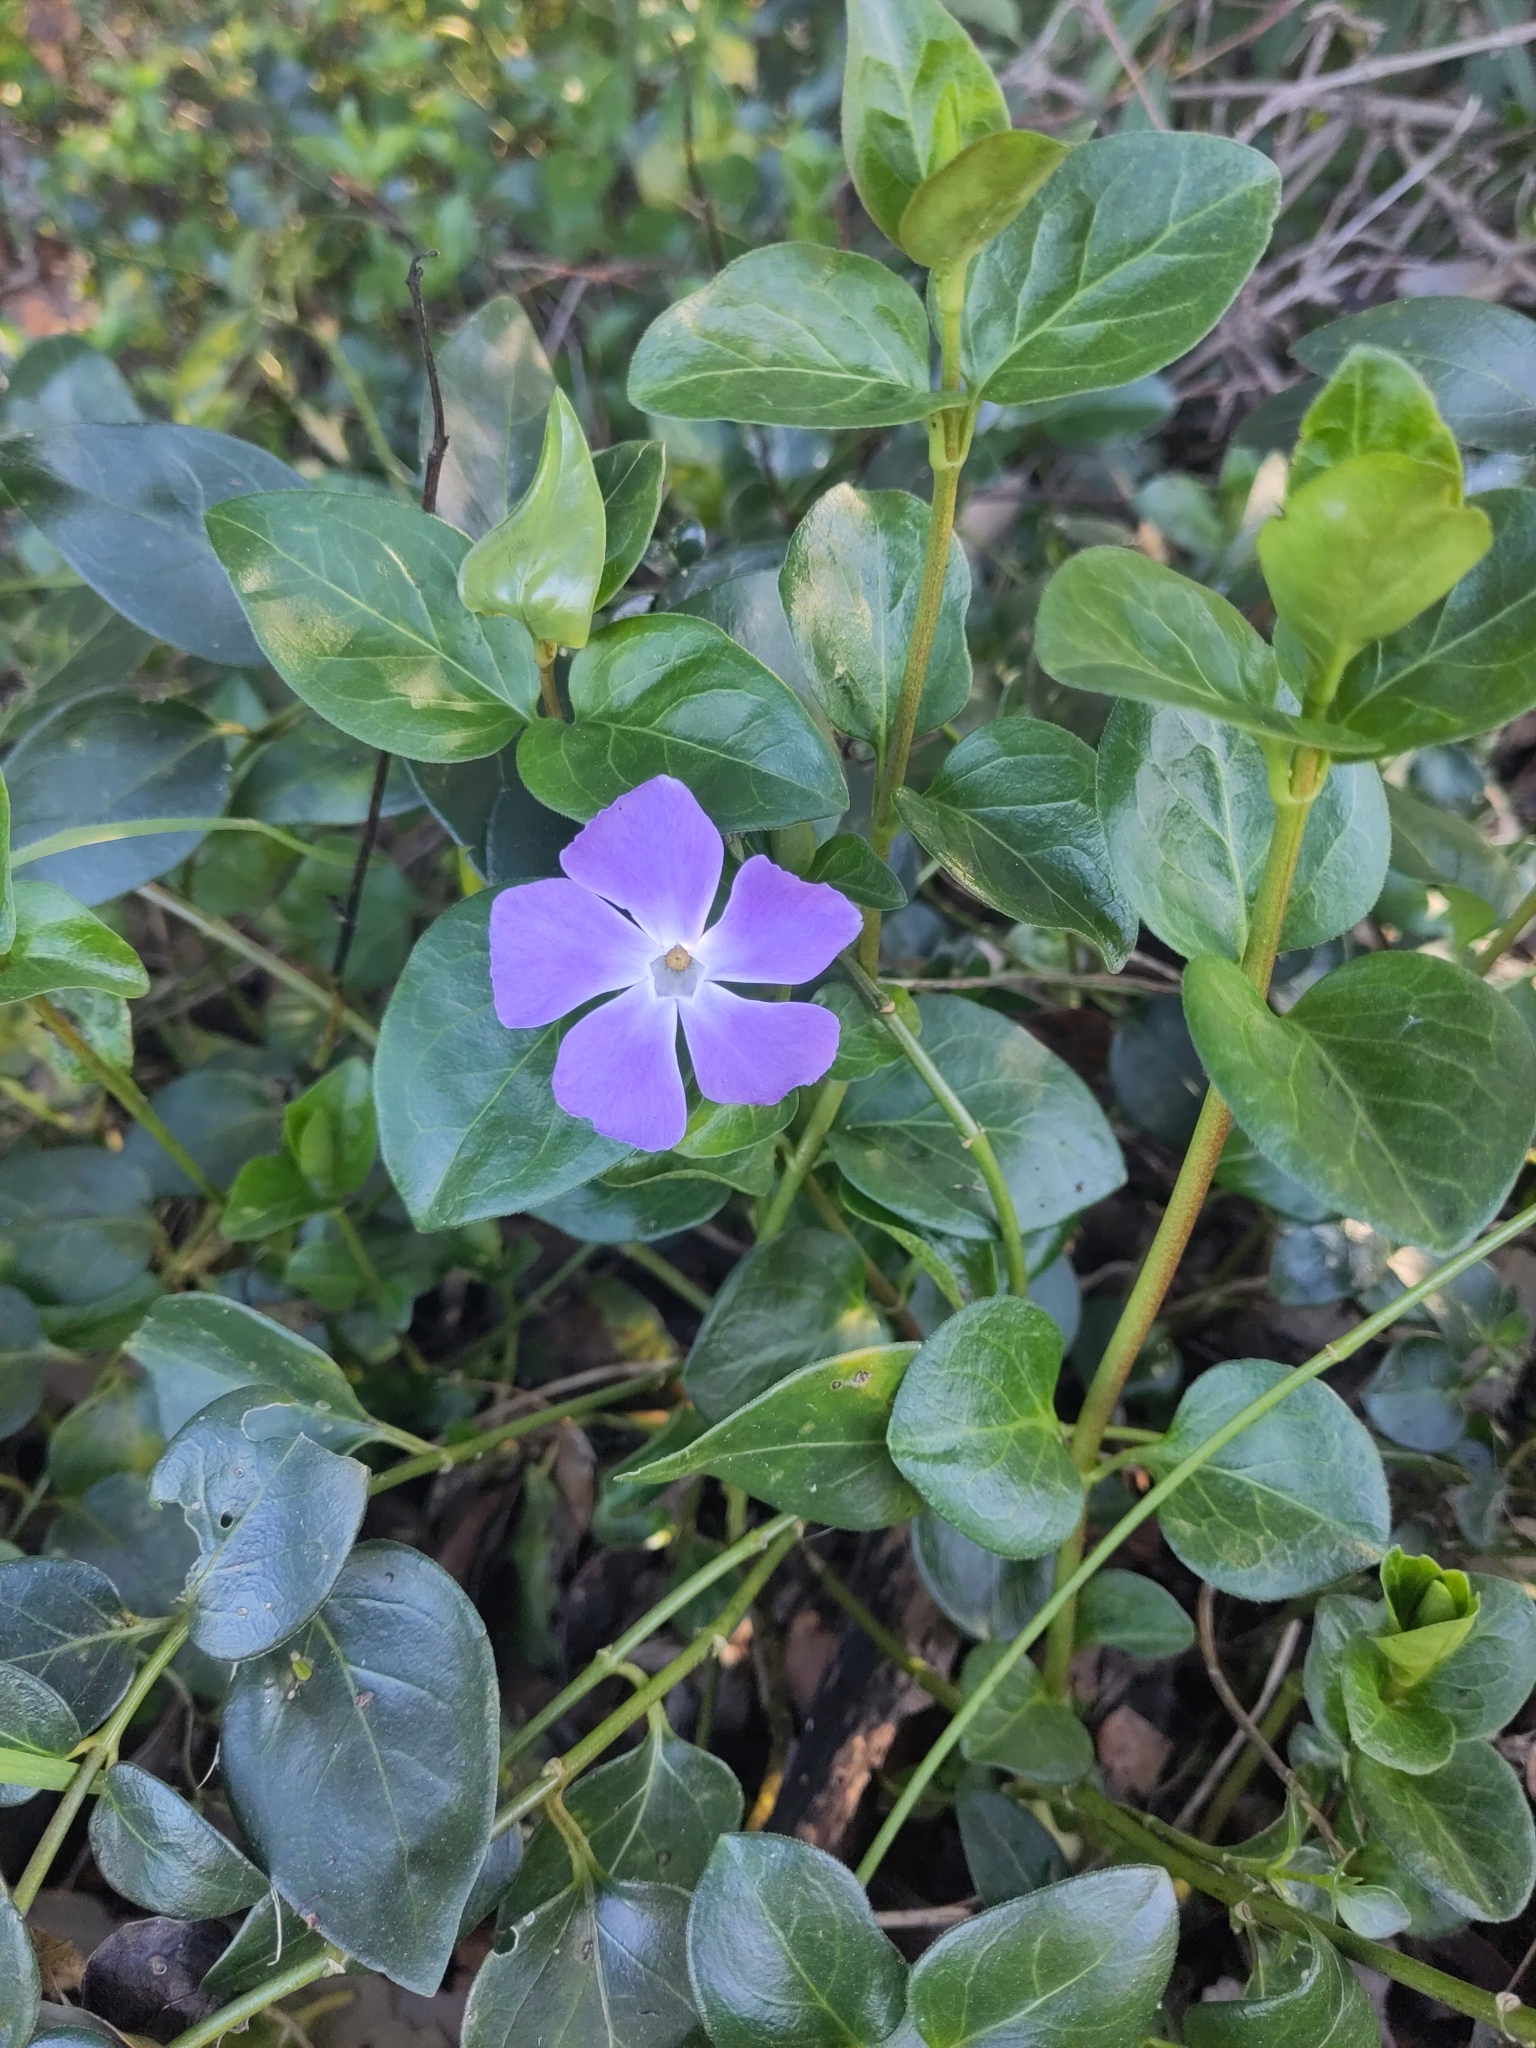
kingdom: Plantae
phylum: Tracheophyta
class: Magnoliopsida
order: Gentianales
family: Apocynaceae
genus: Vinca
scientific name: Vinca major
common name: Greater periwinkle
